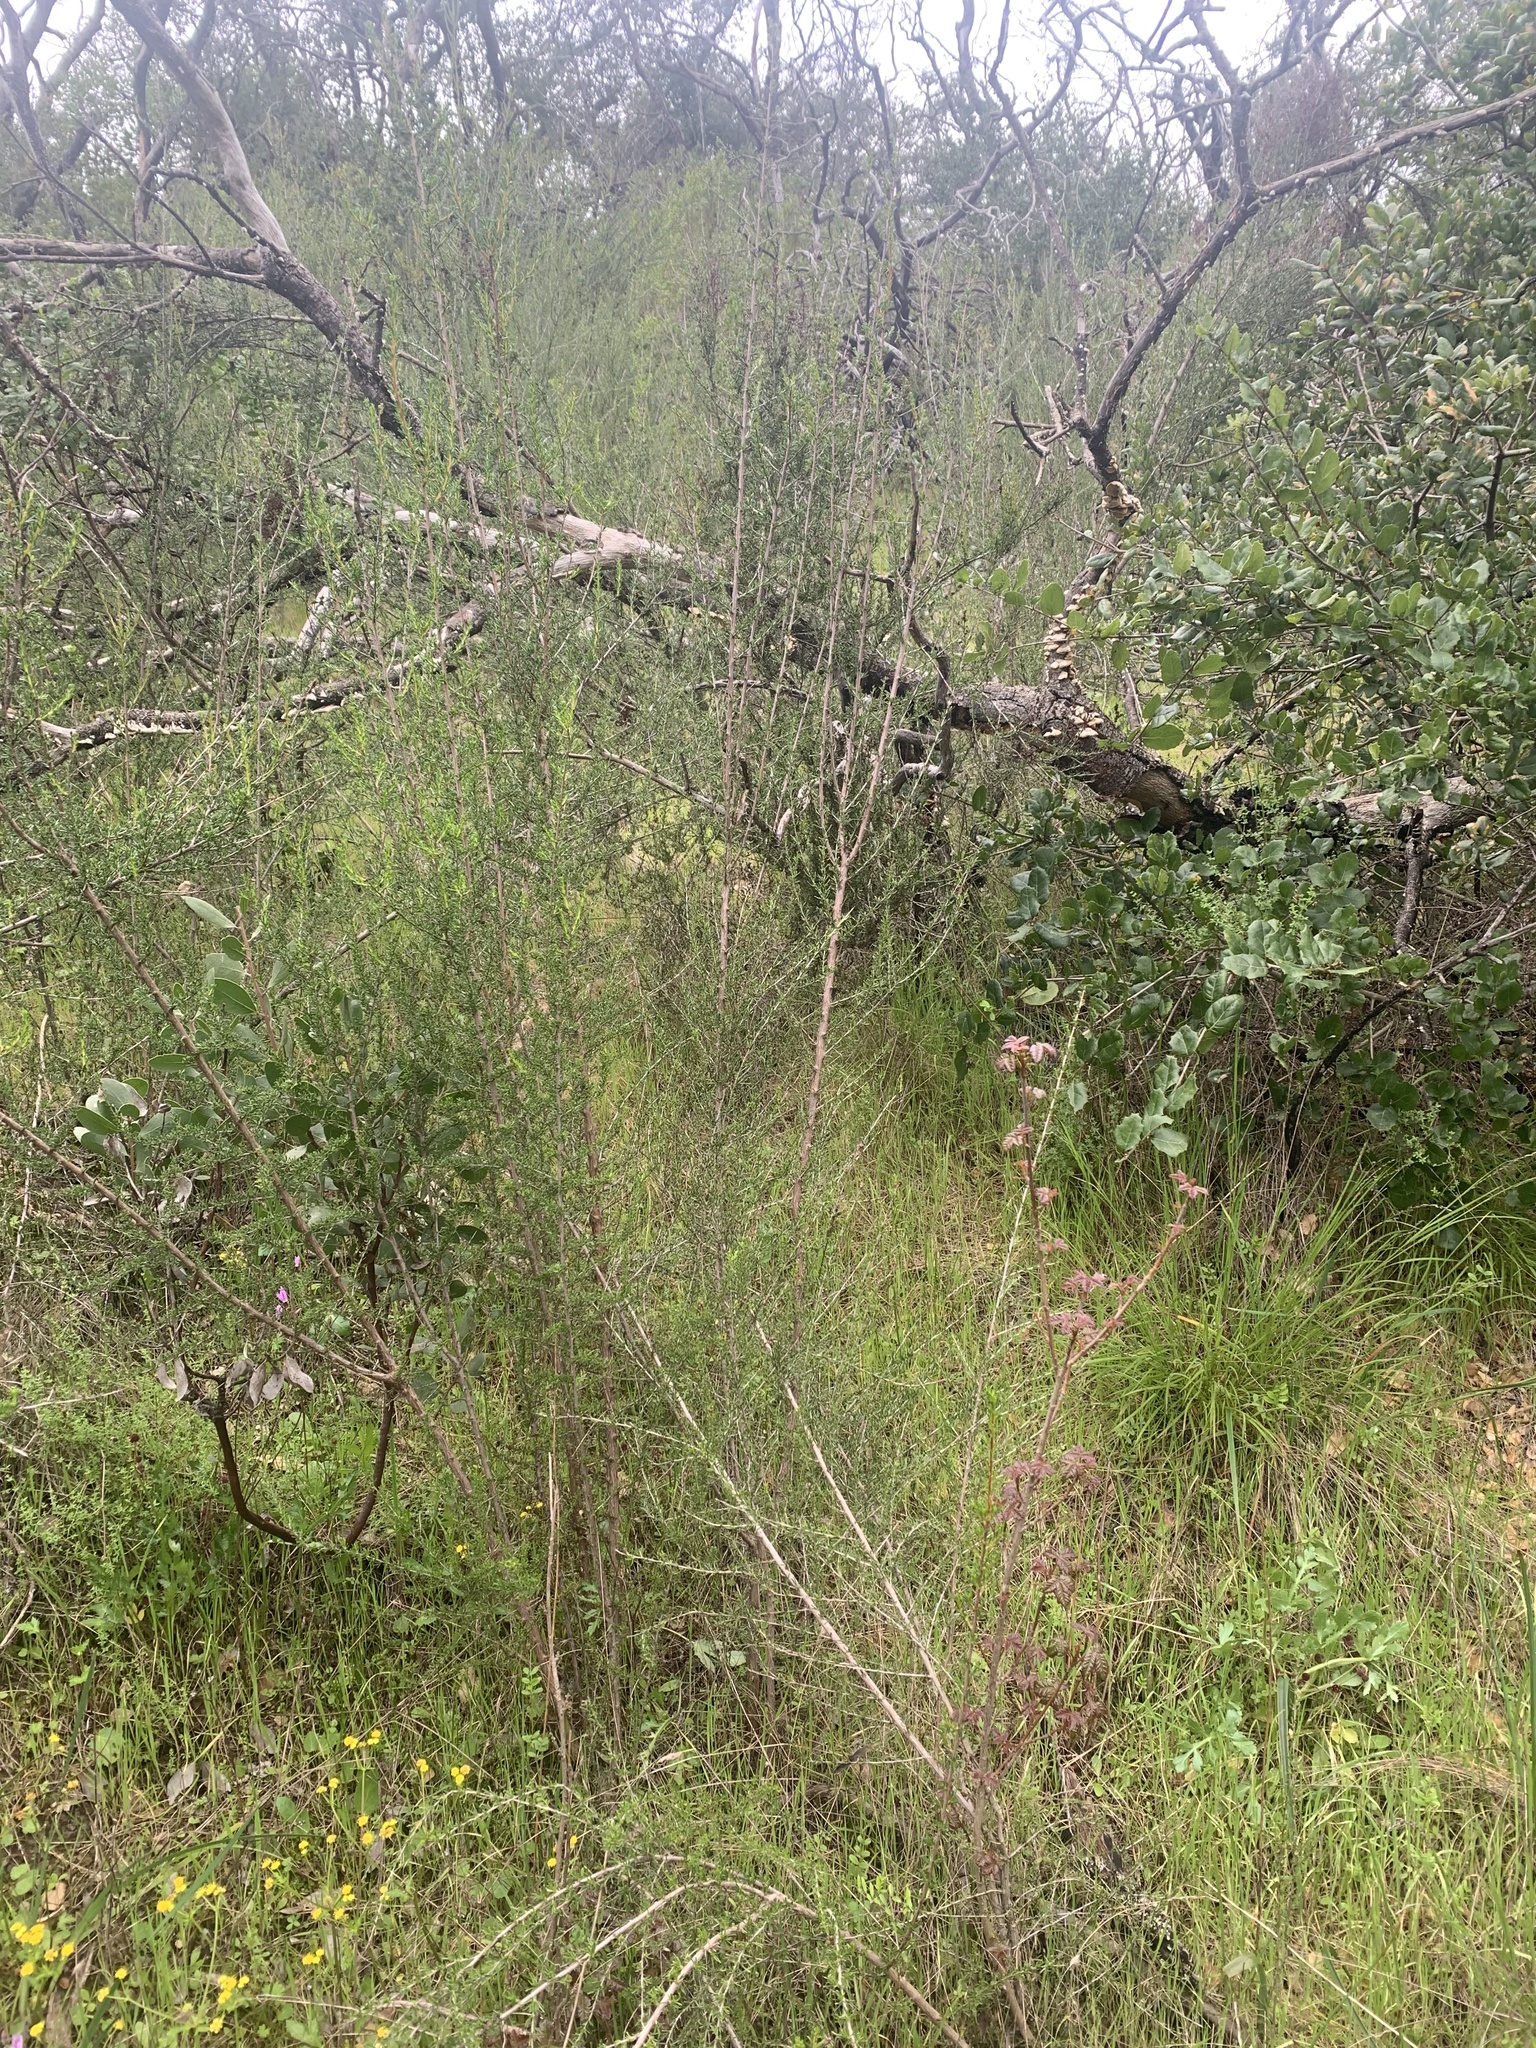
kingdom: Plantae
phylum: Tracheophyta
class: Magnoliopsida
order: Rosales
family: Rosaceae
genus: Adenostoma
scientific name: Adenostoma fasciculatum
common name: Chamise
